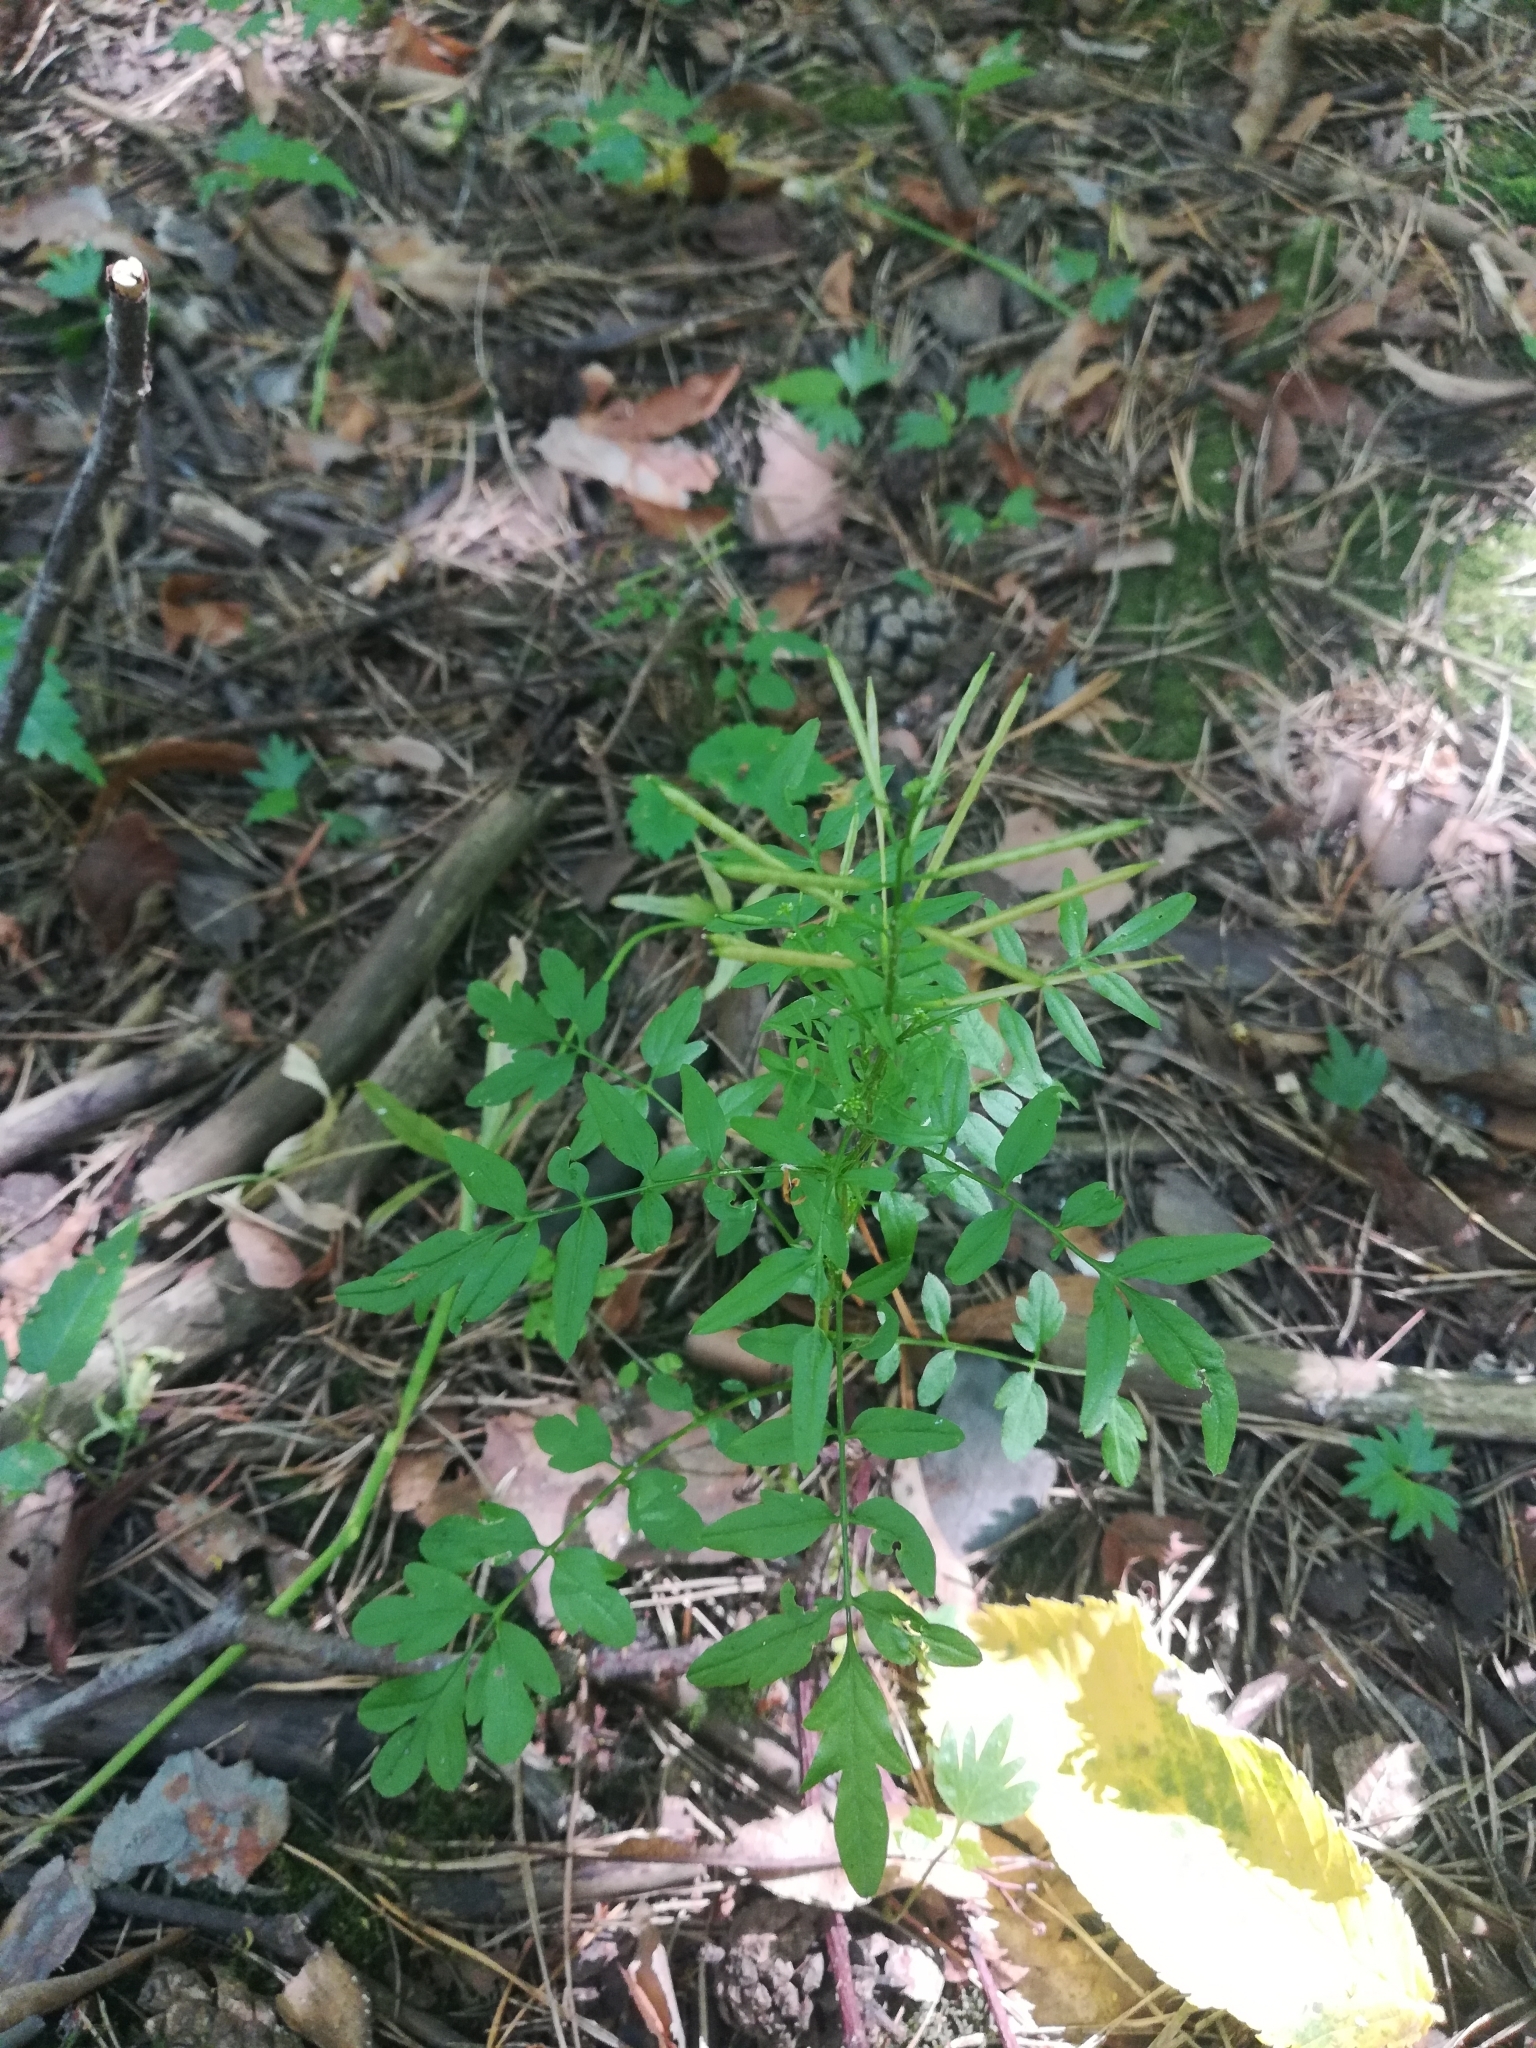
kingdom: Plantae
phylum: Tracheophyta
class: Magnoliopsida
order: Brassicales
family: Brassicaceae
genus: Cardamine
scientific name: Cardamine impatiens
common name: Narrow-leaved bitter-cress
